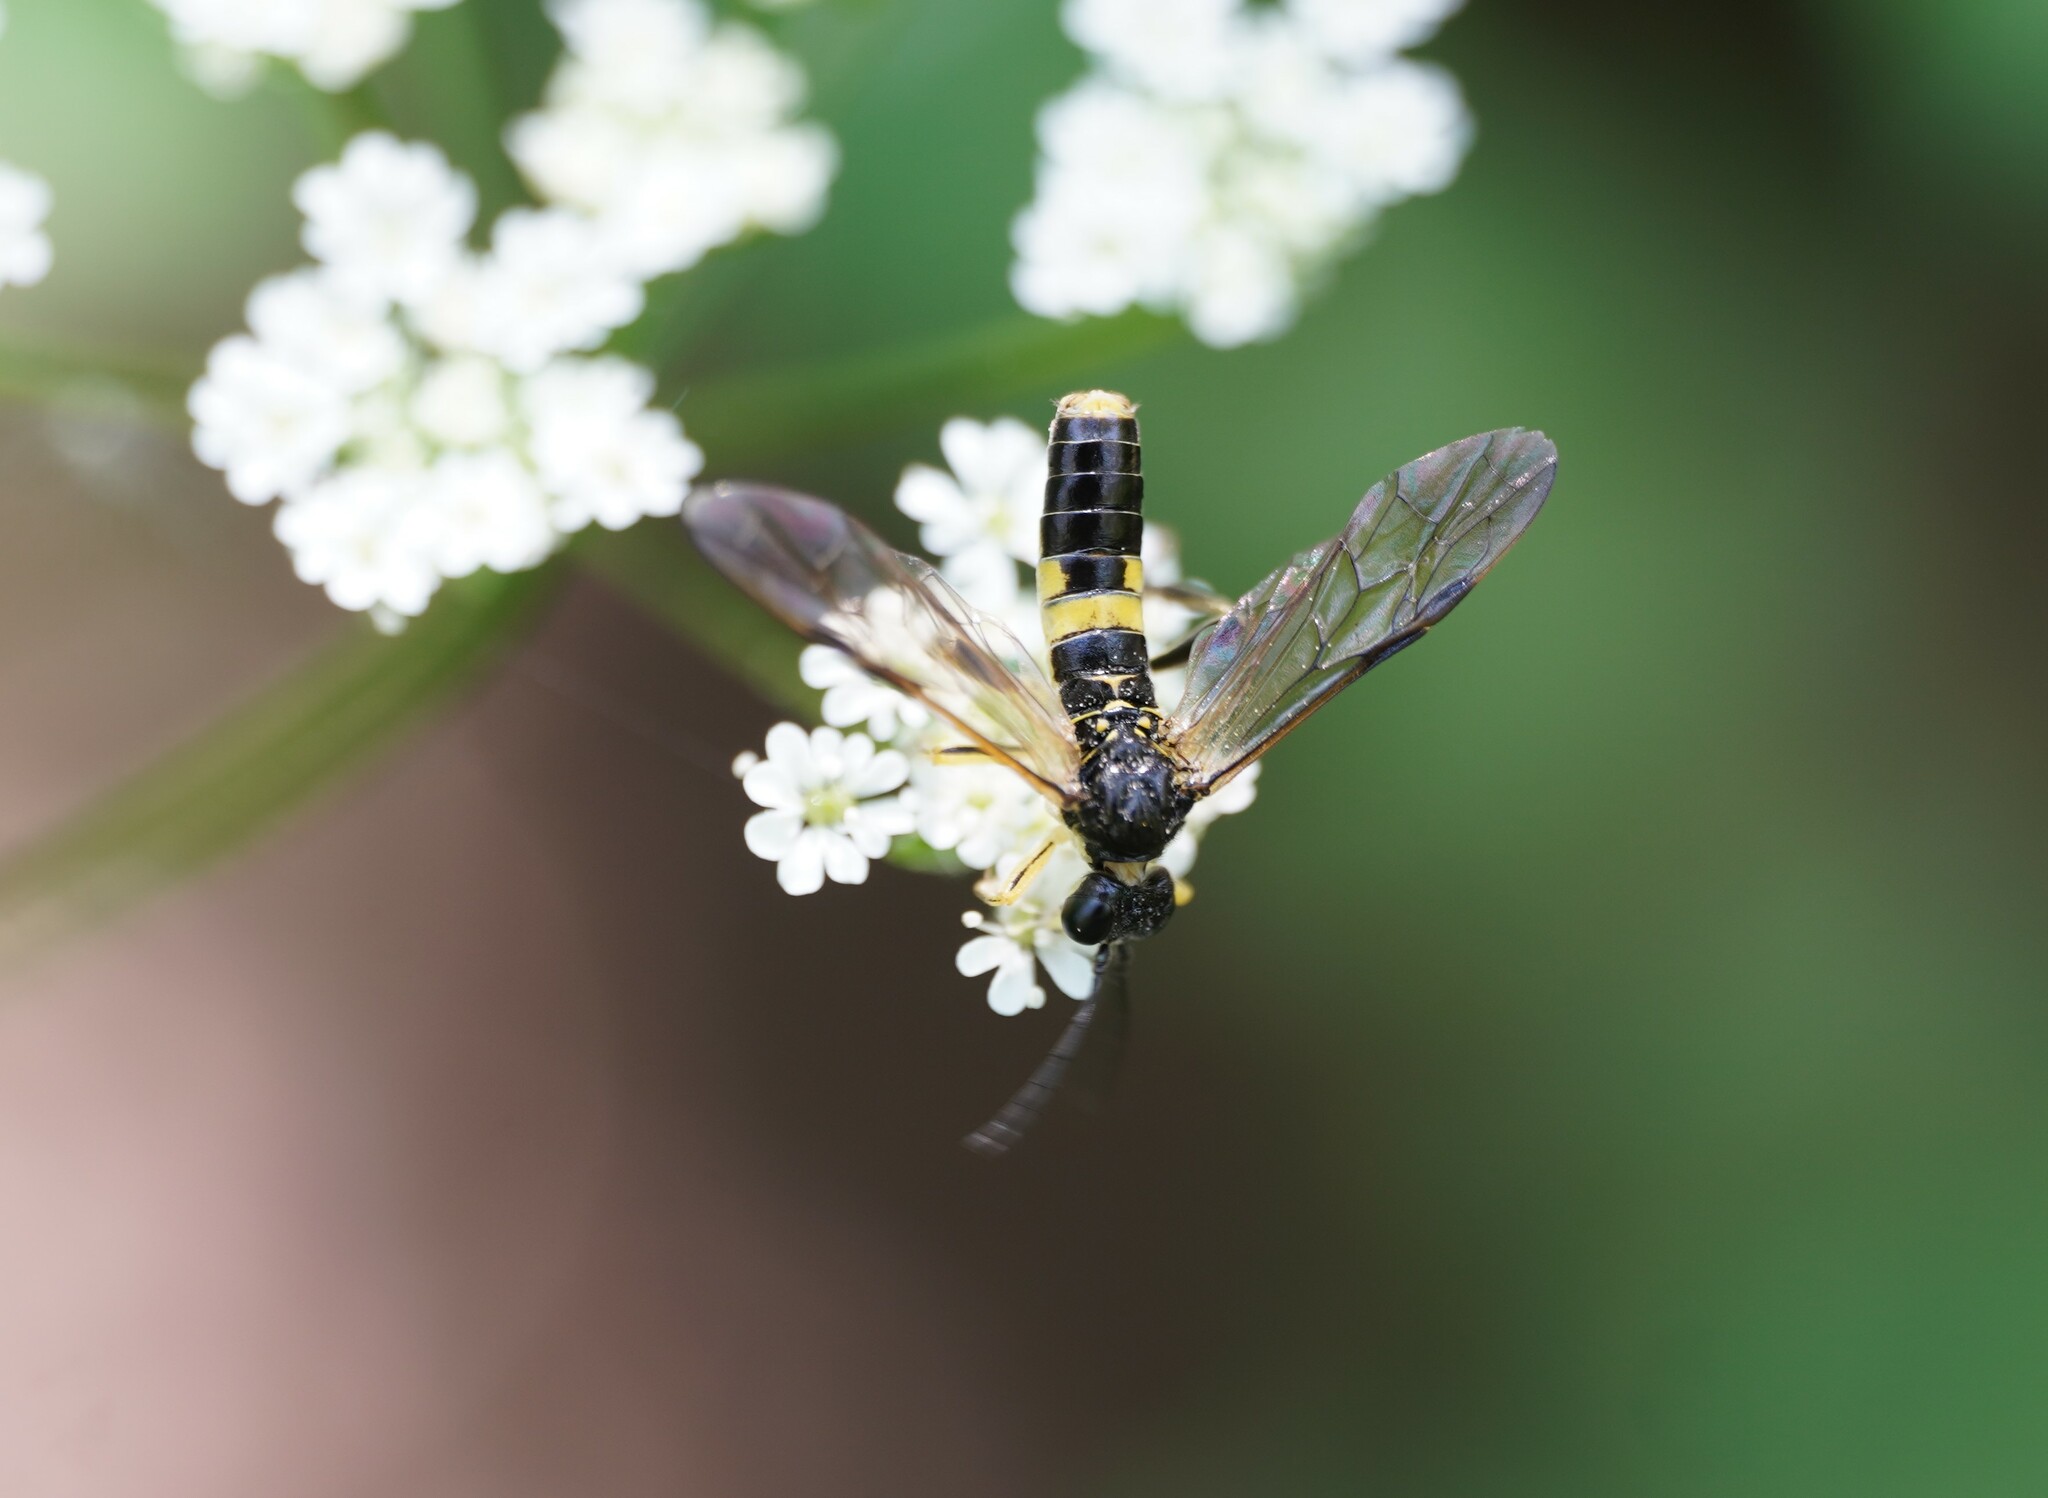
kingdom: Animalia
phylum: Arthropoda
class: Insecta
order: Hymenoptera
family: Tenthredinidae
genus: Tenthredo
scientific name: Tenthredo temula
